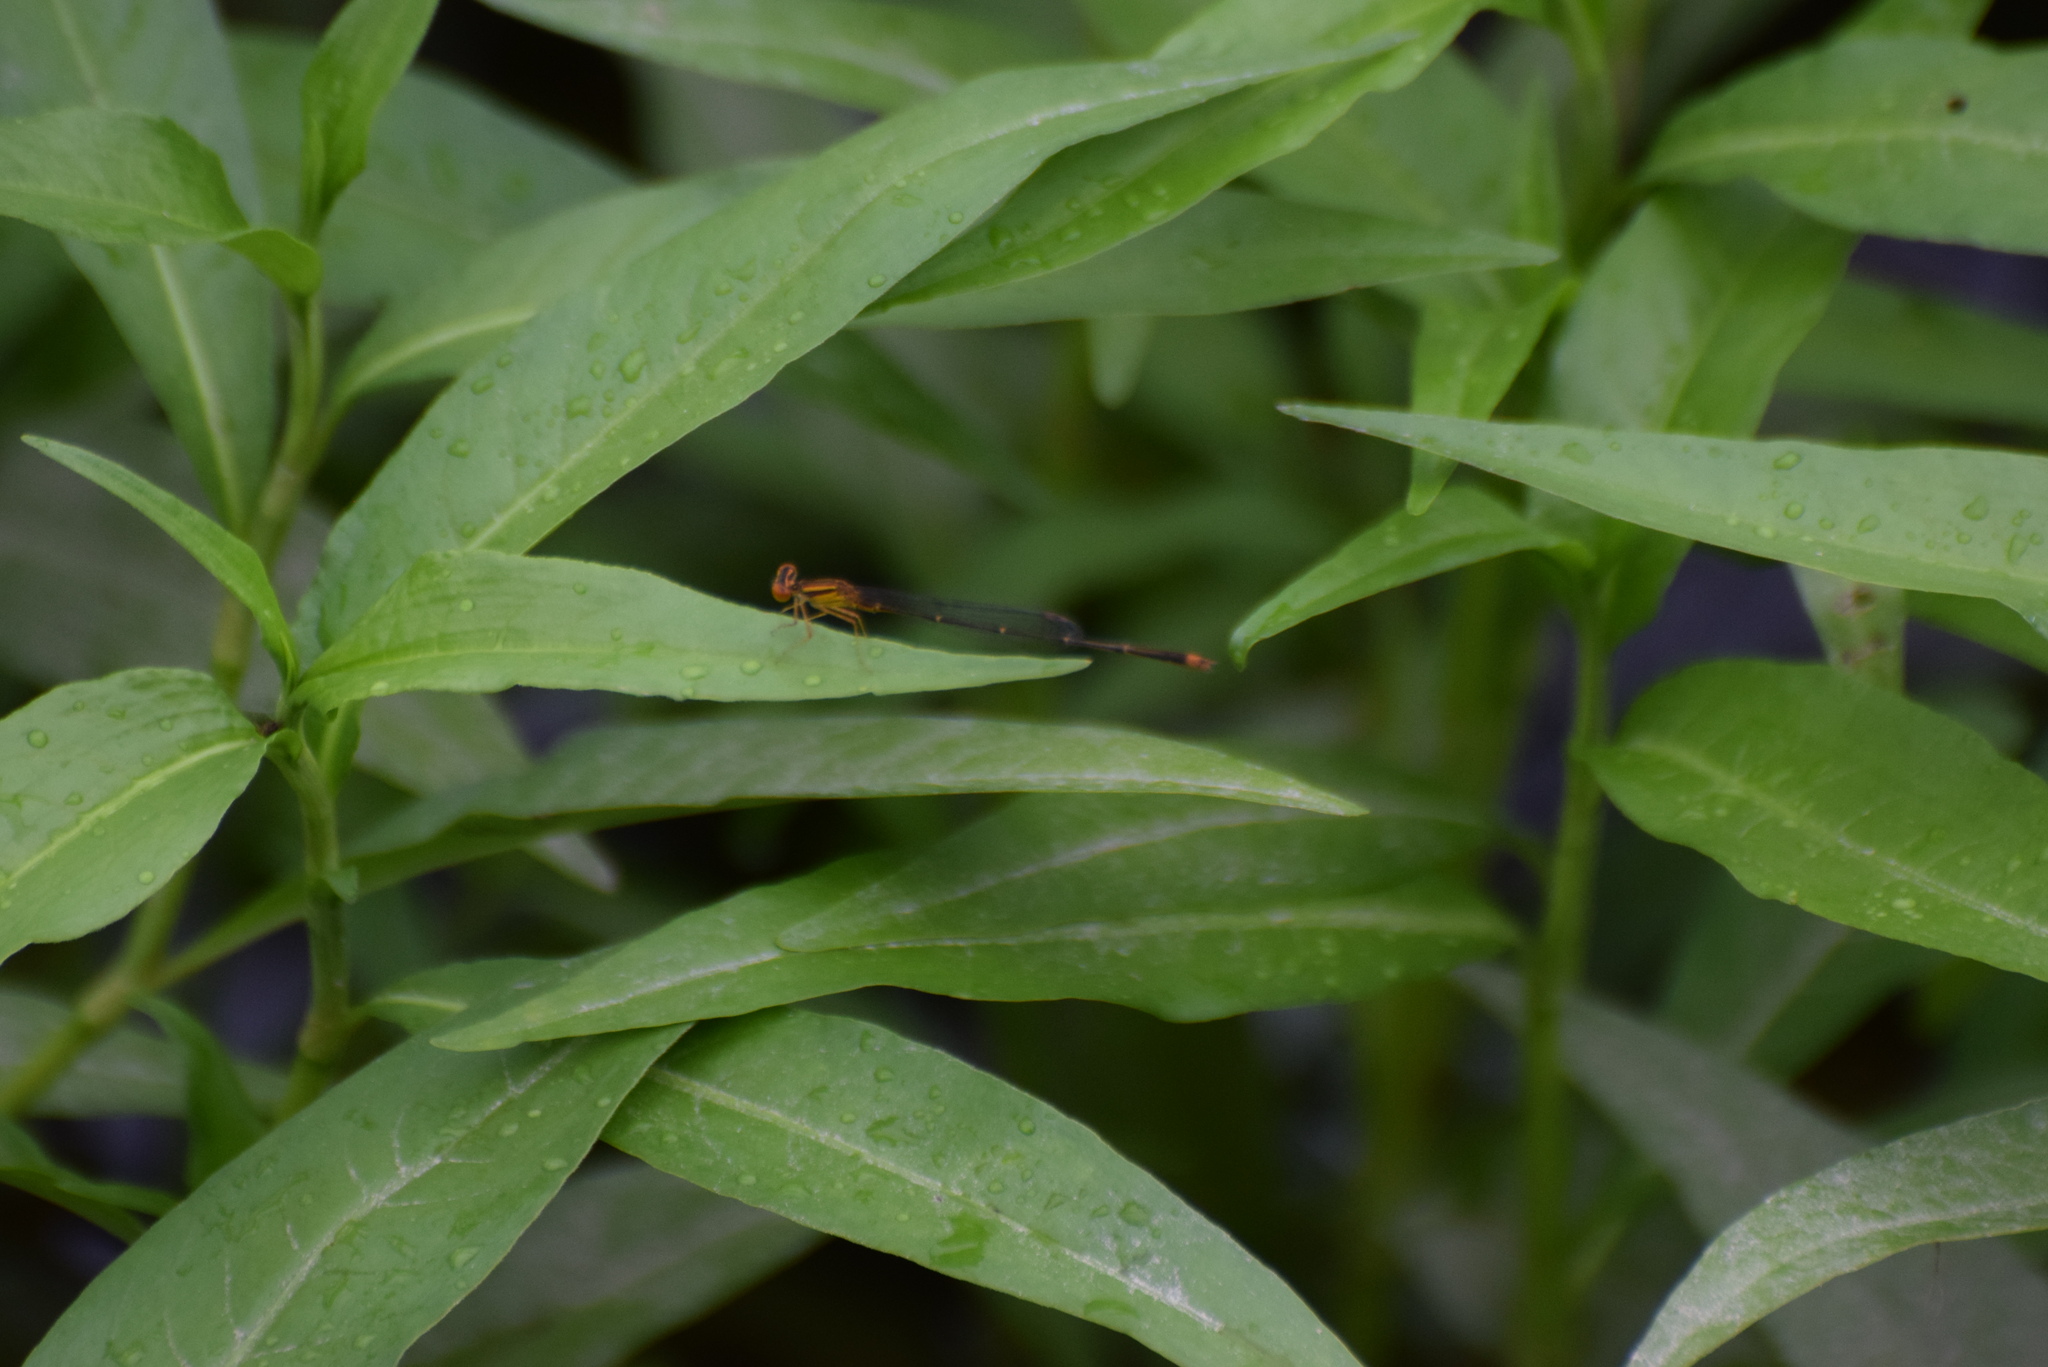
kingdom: Animalia
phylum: Arthropoda
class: Insecta
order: Odonata
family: Coenagrionidae
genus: Enallagma
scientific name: Enallagma signatum
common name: Orange bluet
